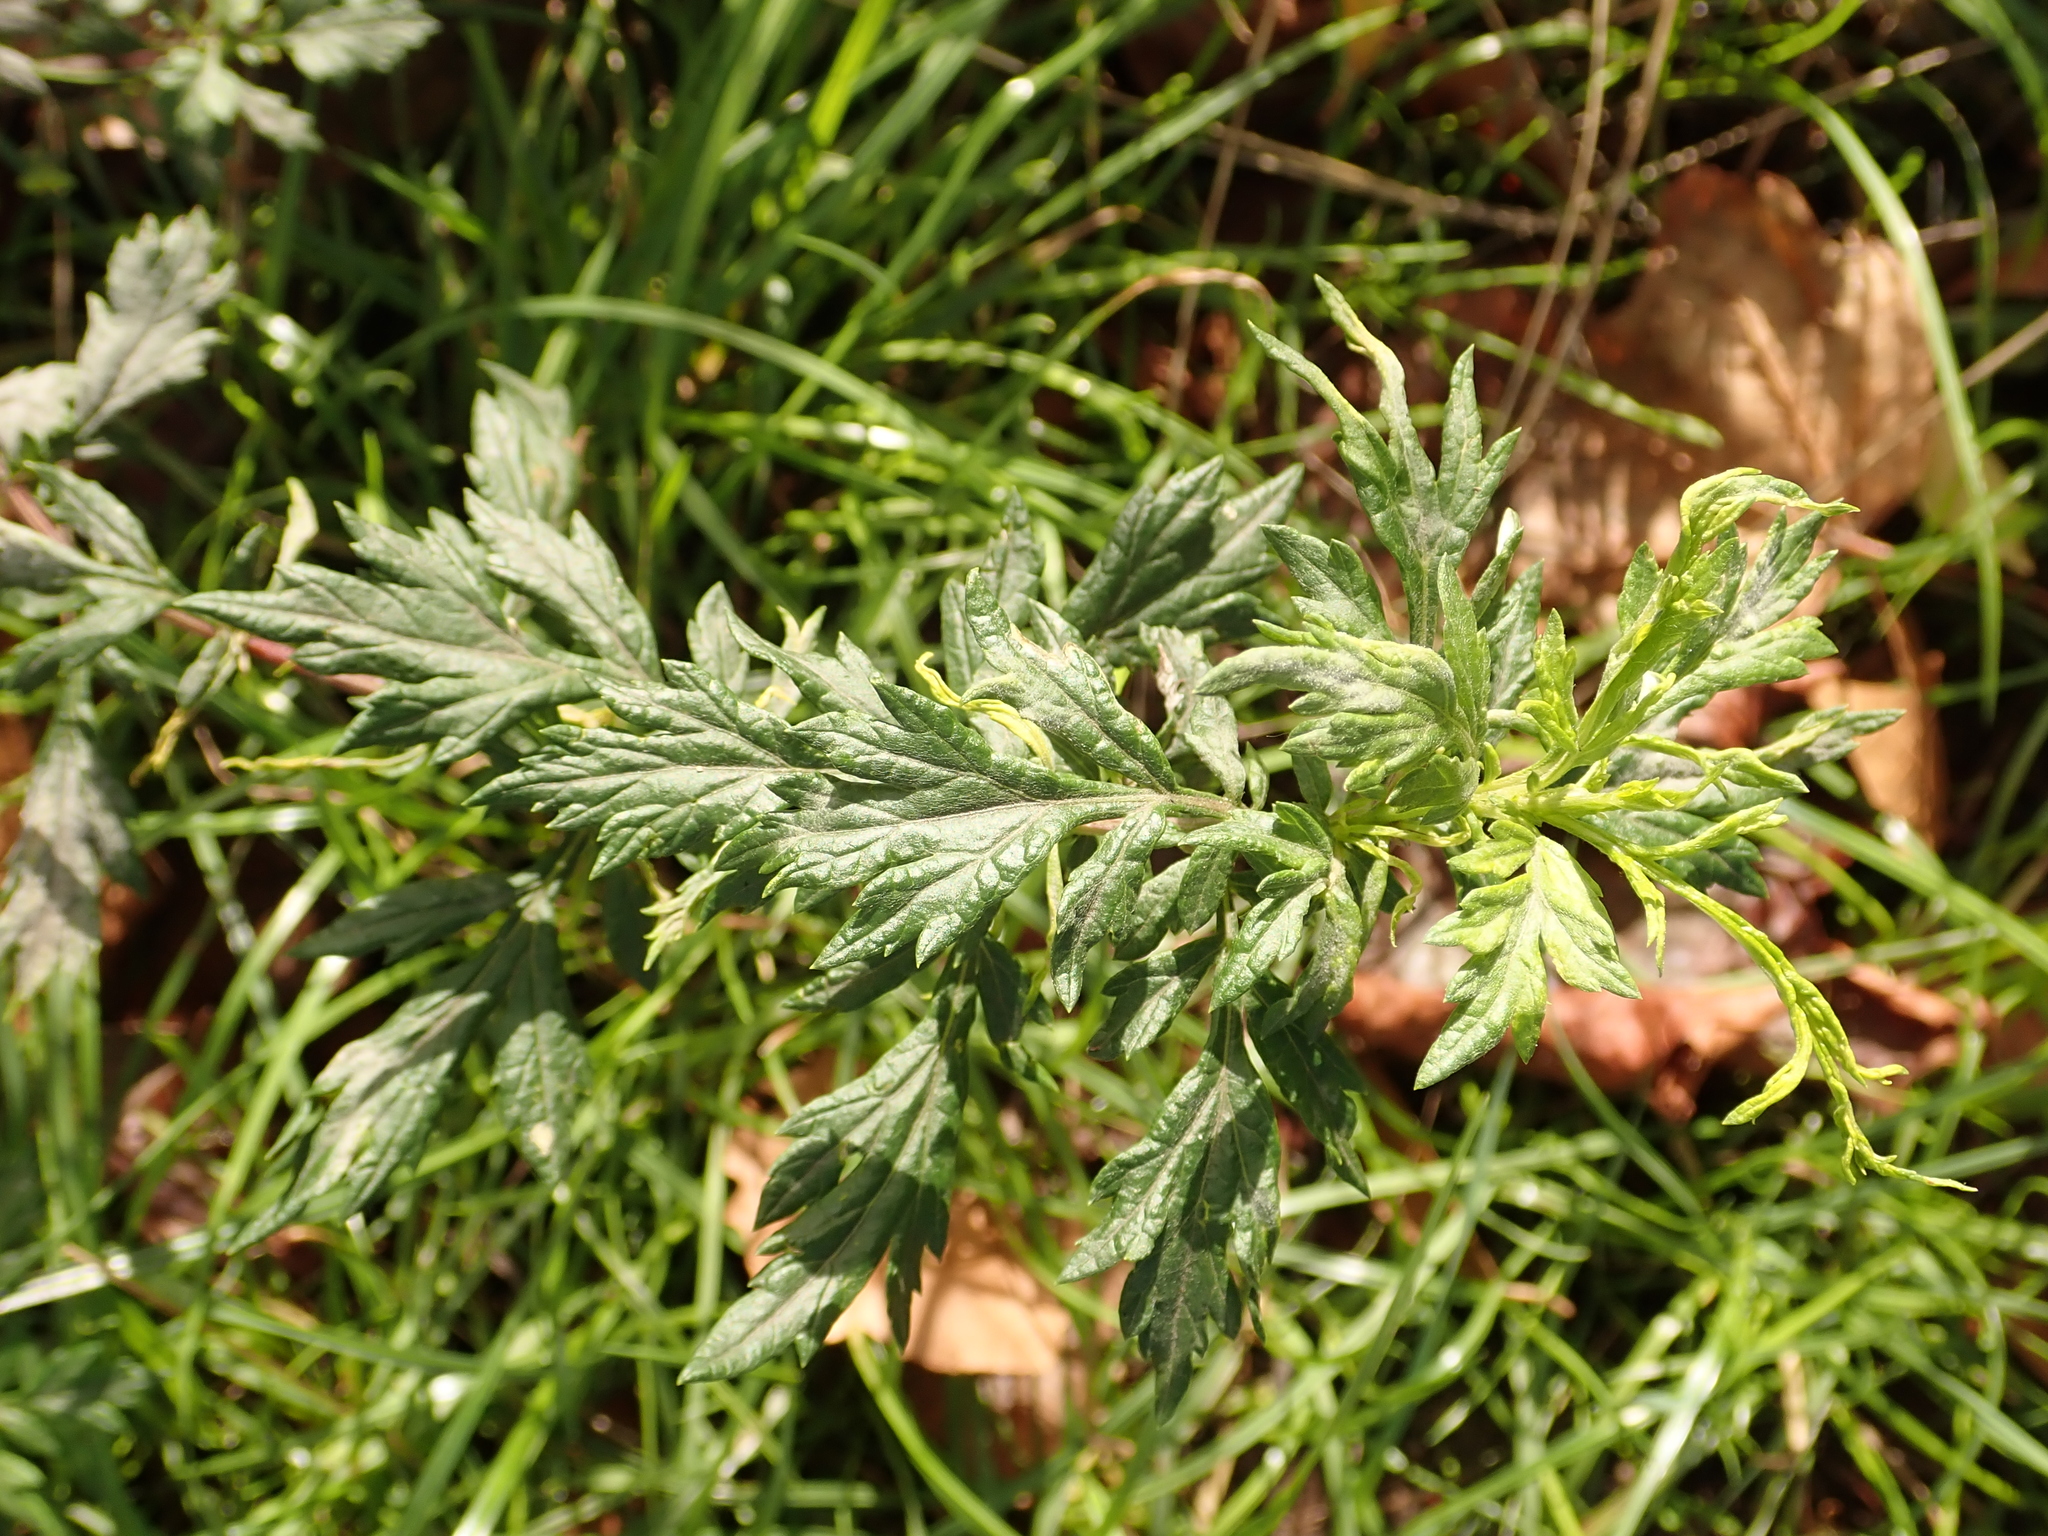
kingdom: Plantae
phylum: Tracheophyta
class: Magnoliopsida
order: Asterales
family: Asteraceae
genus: Artemisia
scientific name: Artemisia vulgaris
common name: Mugwort
